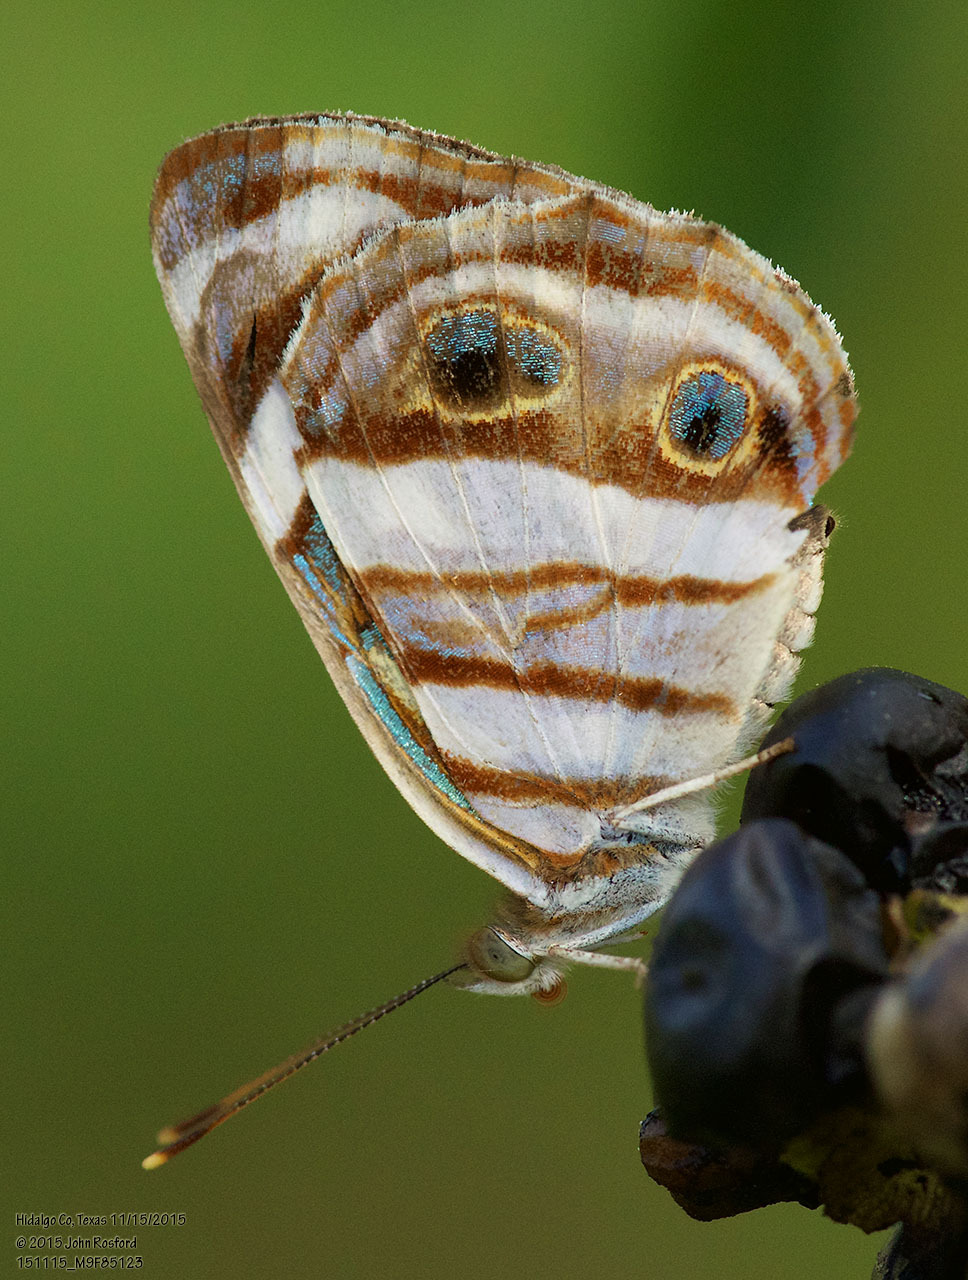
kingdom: Animalia
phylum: Arthropoda
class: Insecta
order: Lepidoptera
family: Nymphalidae
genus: Dynamine
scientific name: Dynamine mylitta
